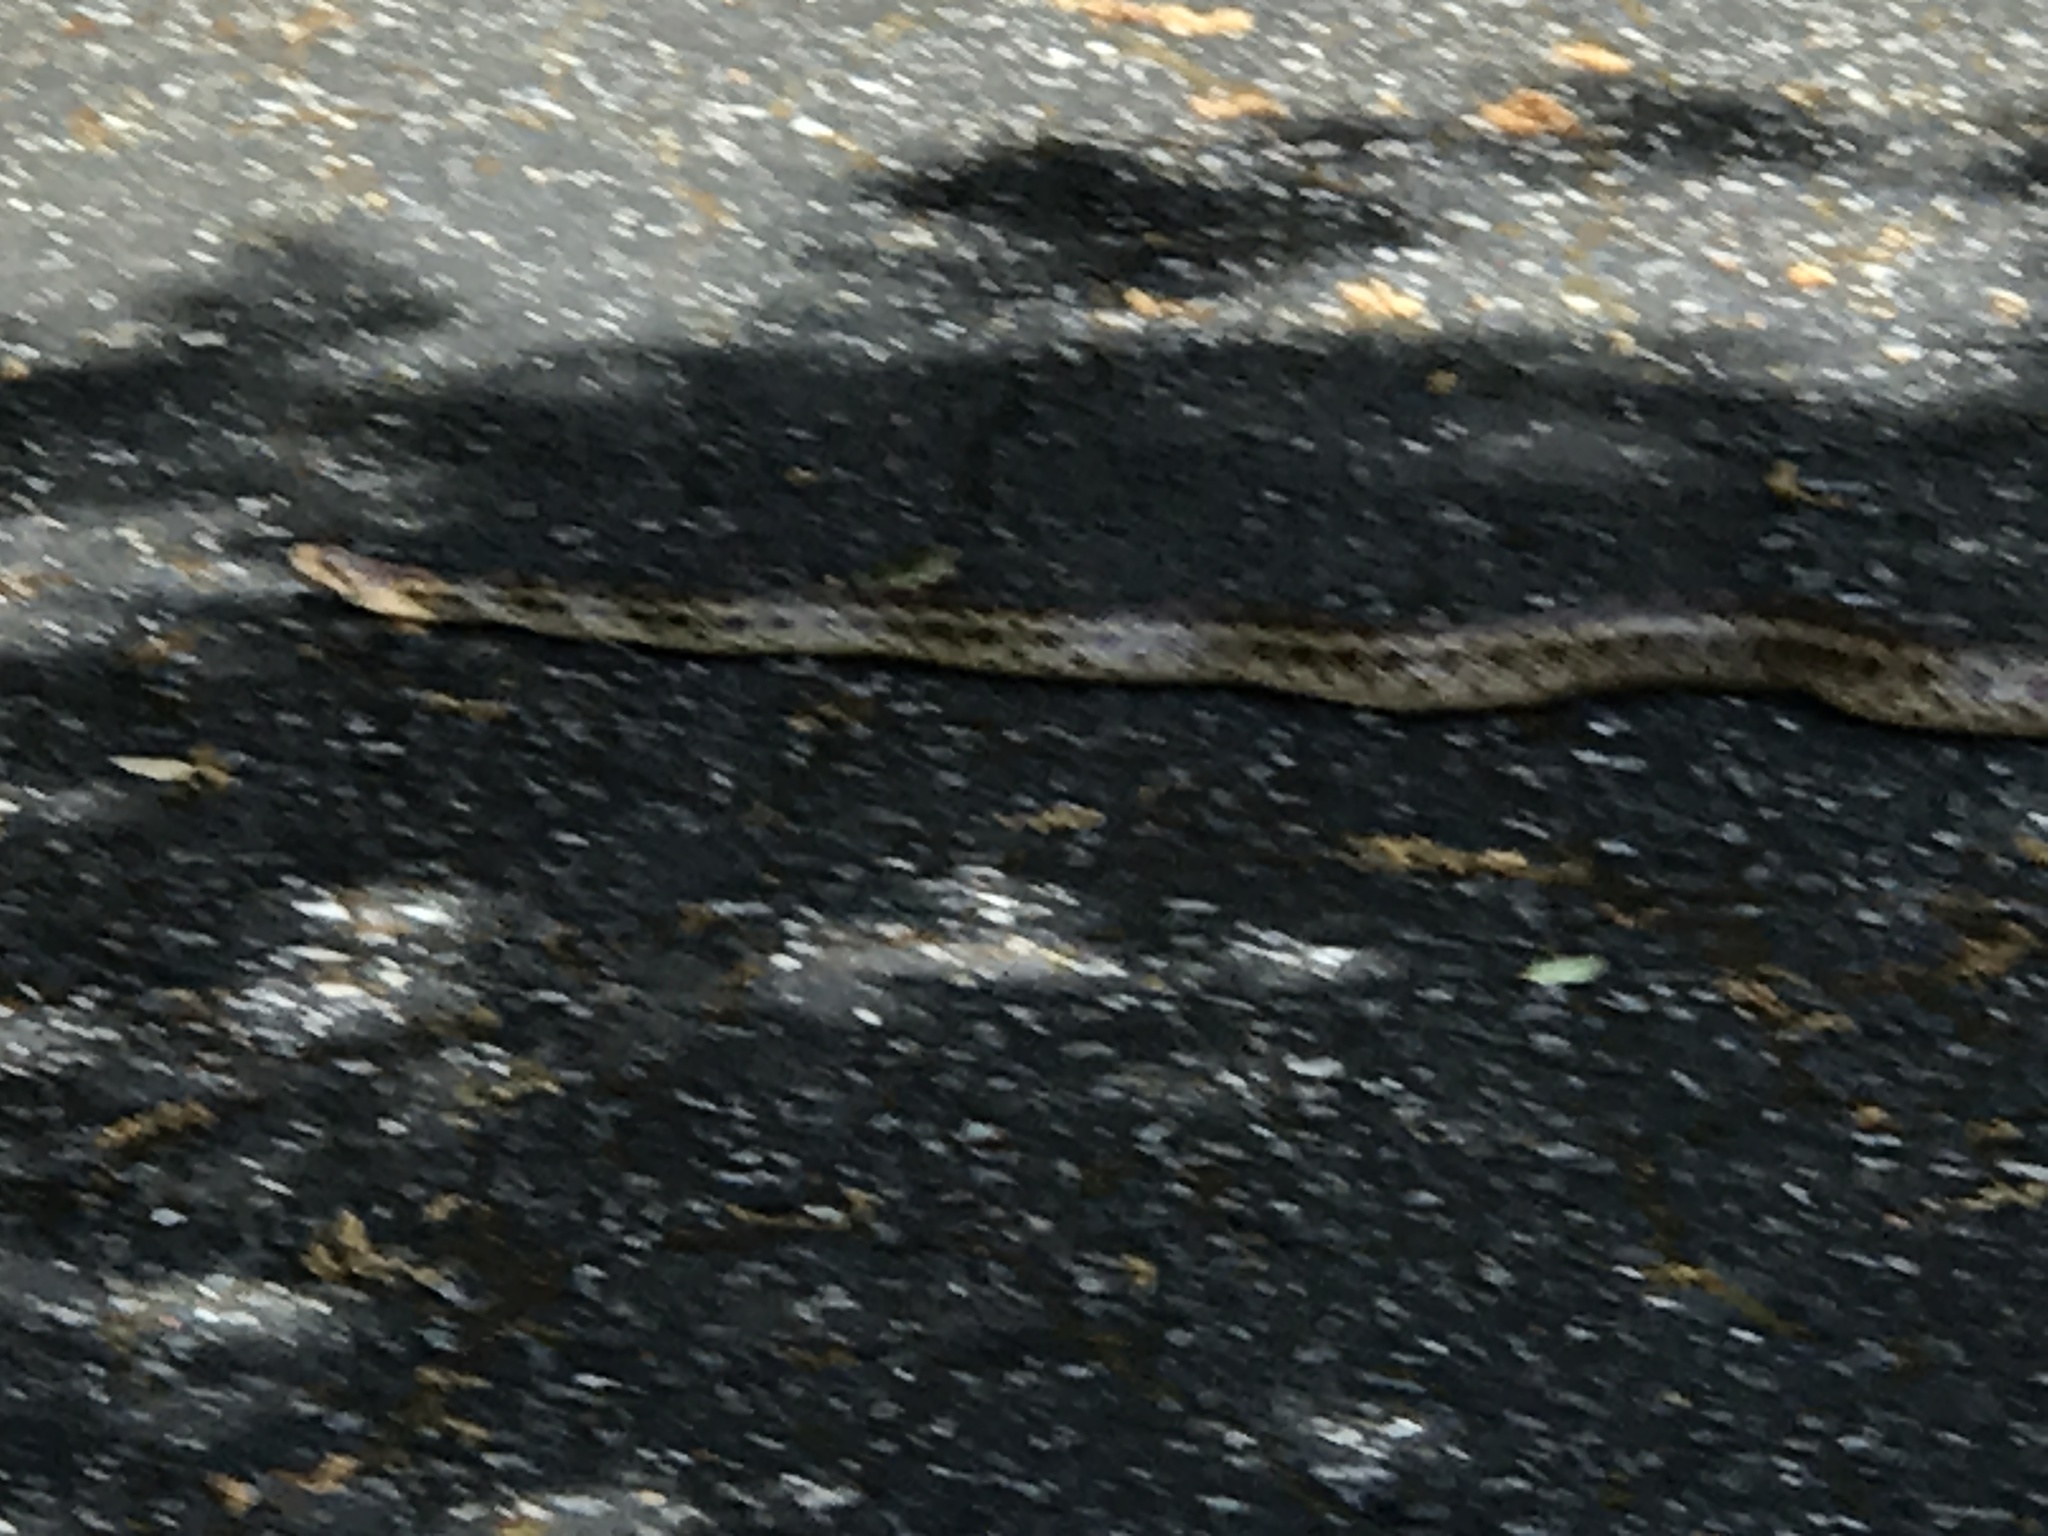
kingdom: Animalia
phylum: Chordata
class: Squamata
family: Colubridae
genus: Pituophis
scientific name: Pituophis catenifer
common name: Gopher snake
